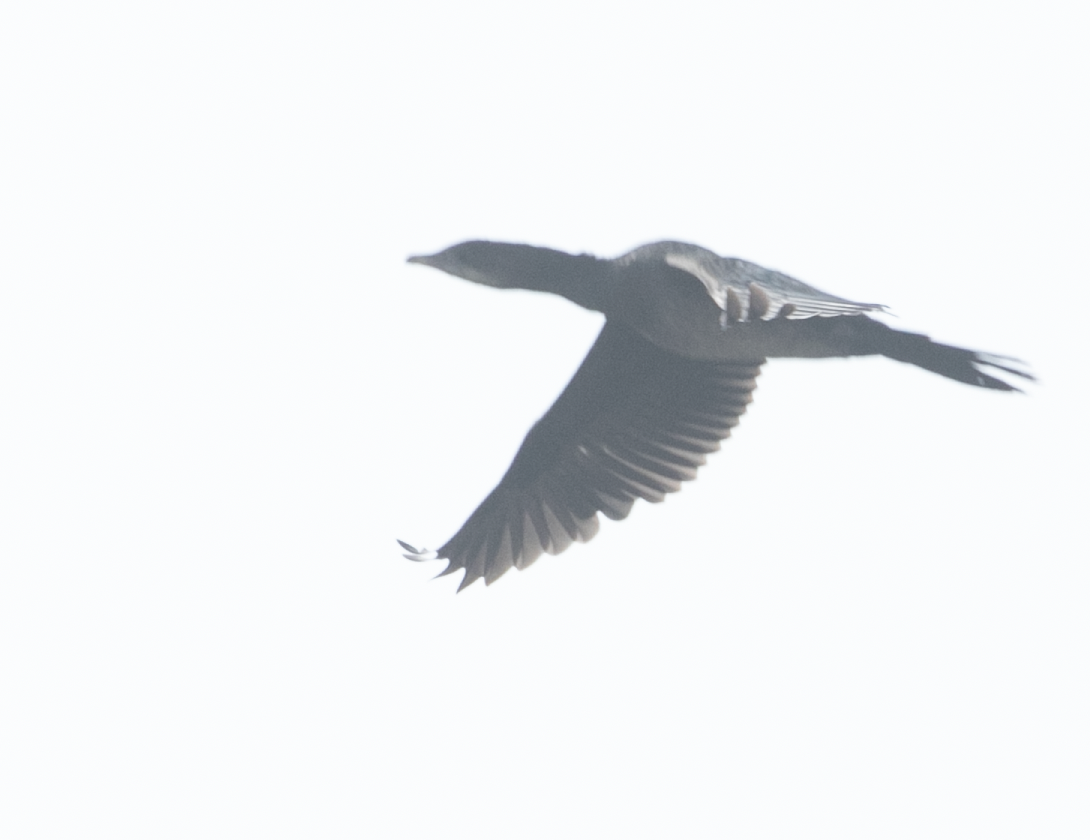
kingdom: Animalia
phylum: Chordata
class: Aves
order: Suliformes
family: Phalacrocoracidae
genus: Microcarbo
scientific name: Microcarbo pygmaeus
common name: Pygmy cormorant
